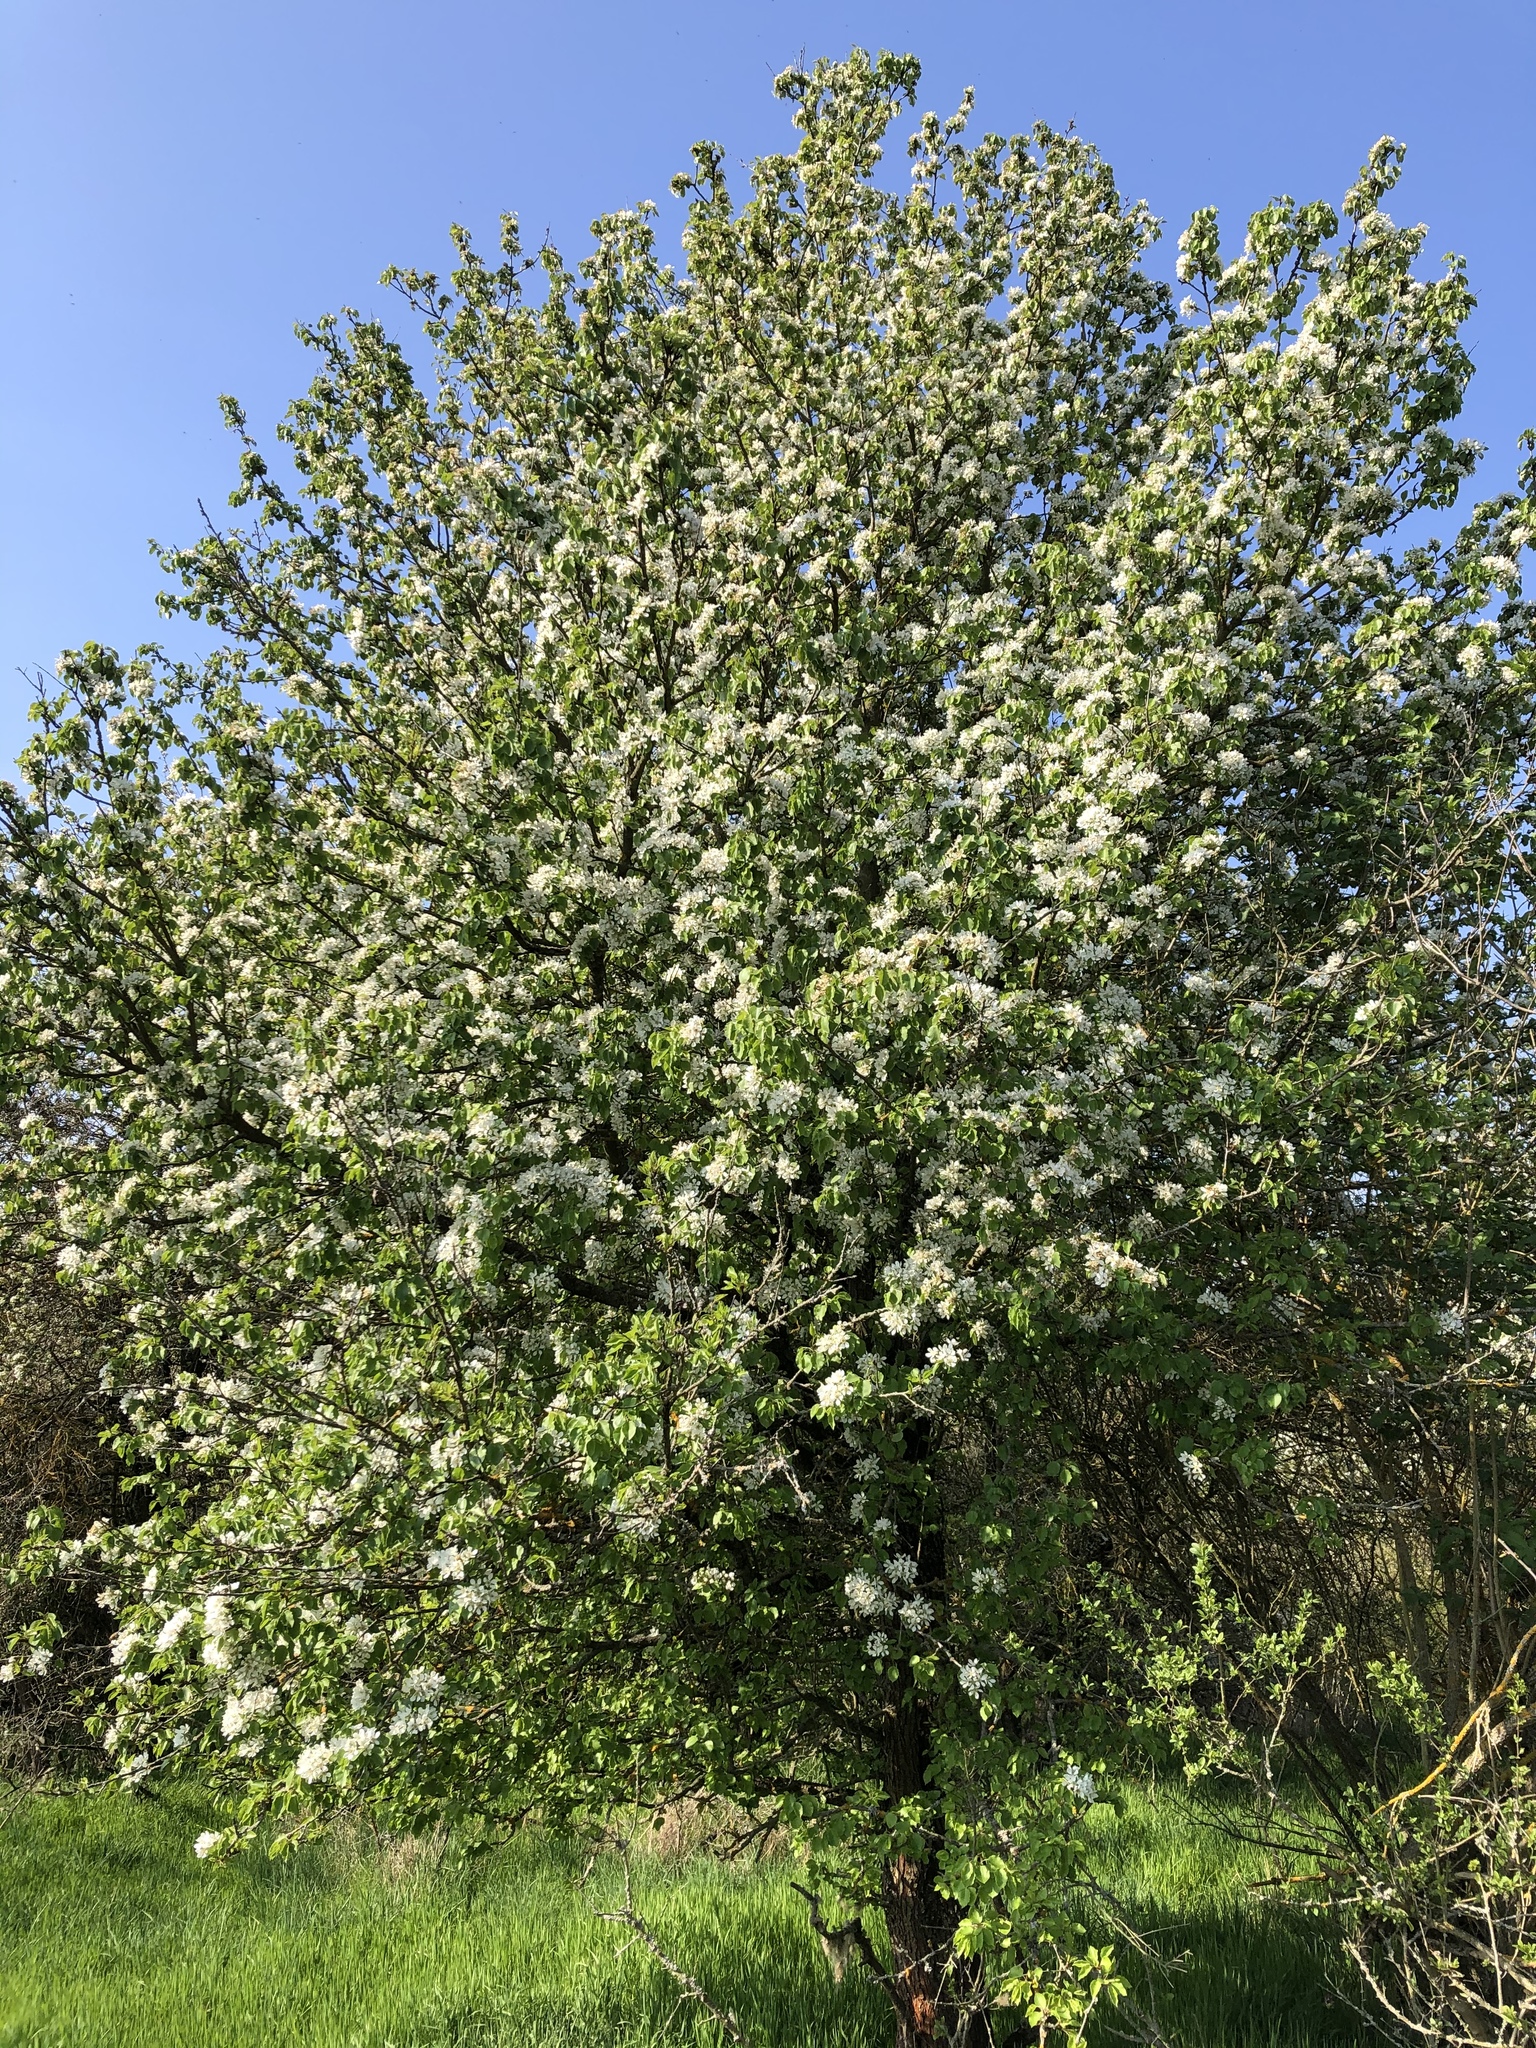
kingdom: Plantae
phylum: Tracheophyta
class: Magnoliopsida
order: Rosales
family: Rosaceae
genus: Pyrus
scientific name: Pyrus communis
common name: Pear
